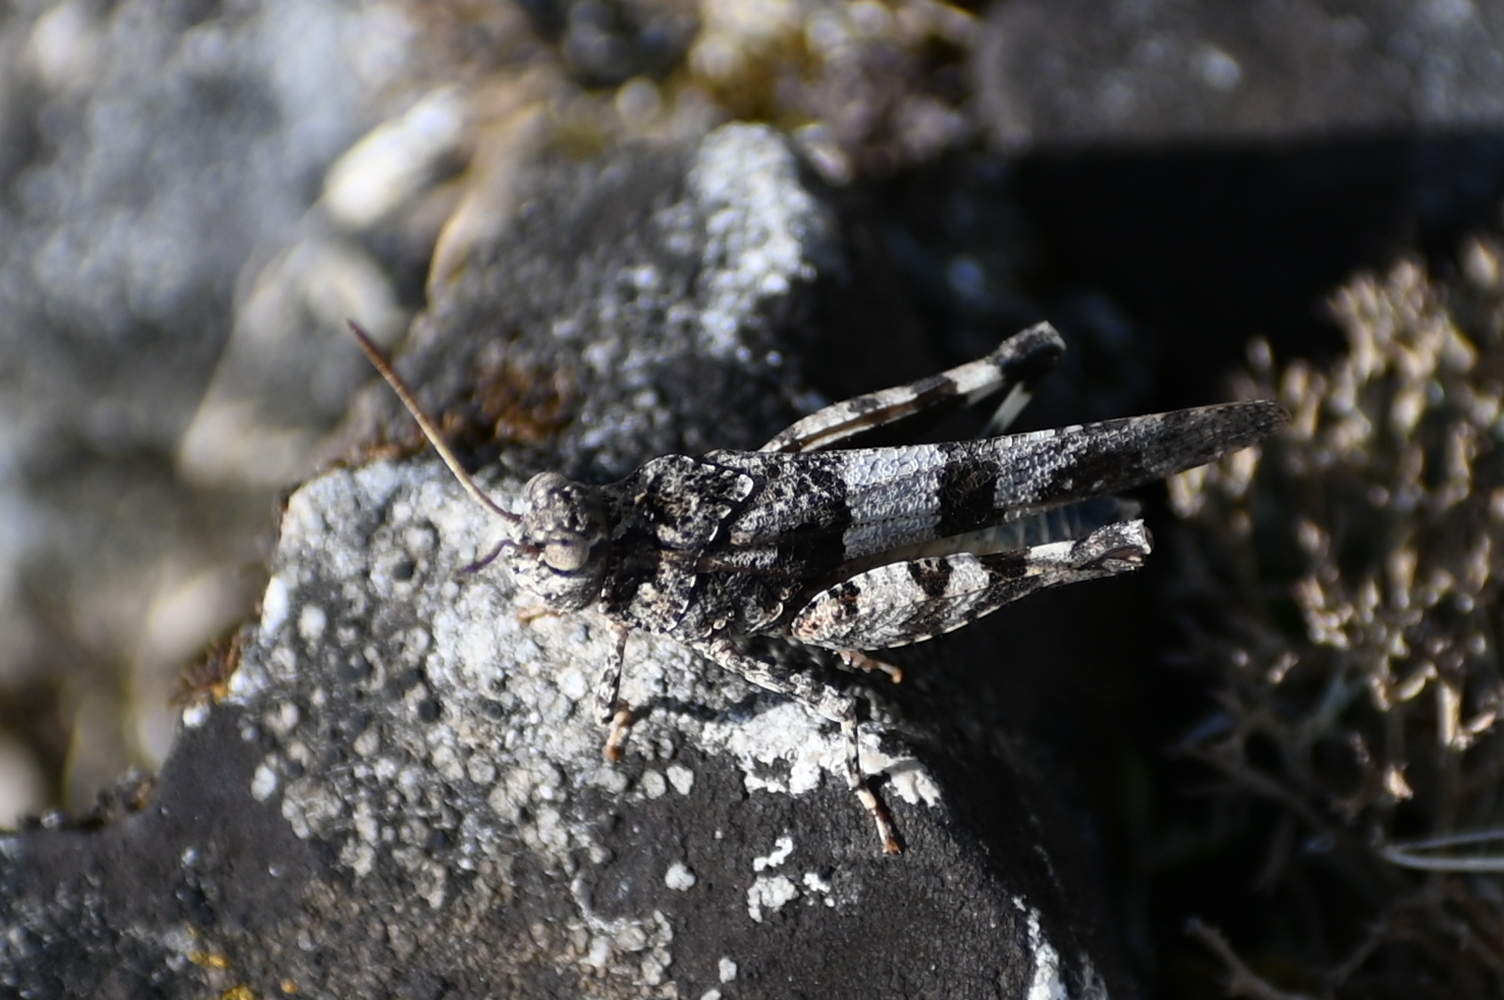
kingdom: Animalia
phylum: Arthropoda
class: Insecta
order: Orthoptera
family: Acrididae
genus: Oedipoda
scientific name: Oedipoda caerulescens
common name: Blue-winged grasshopper
